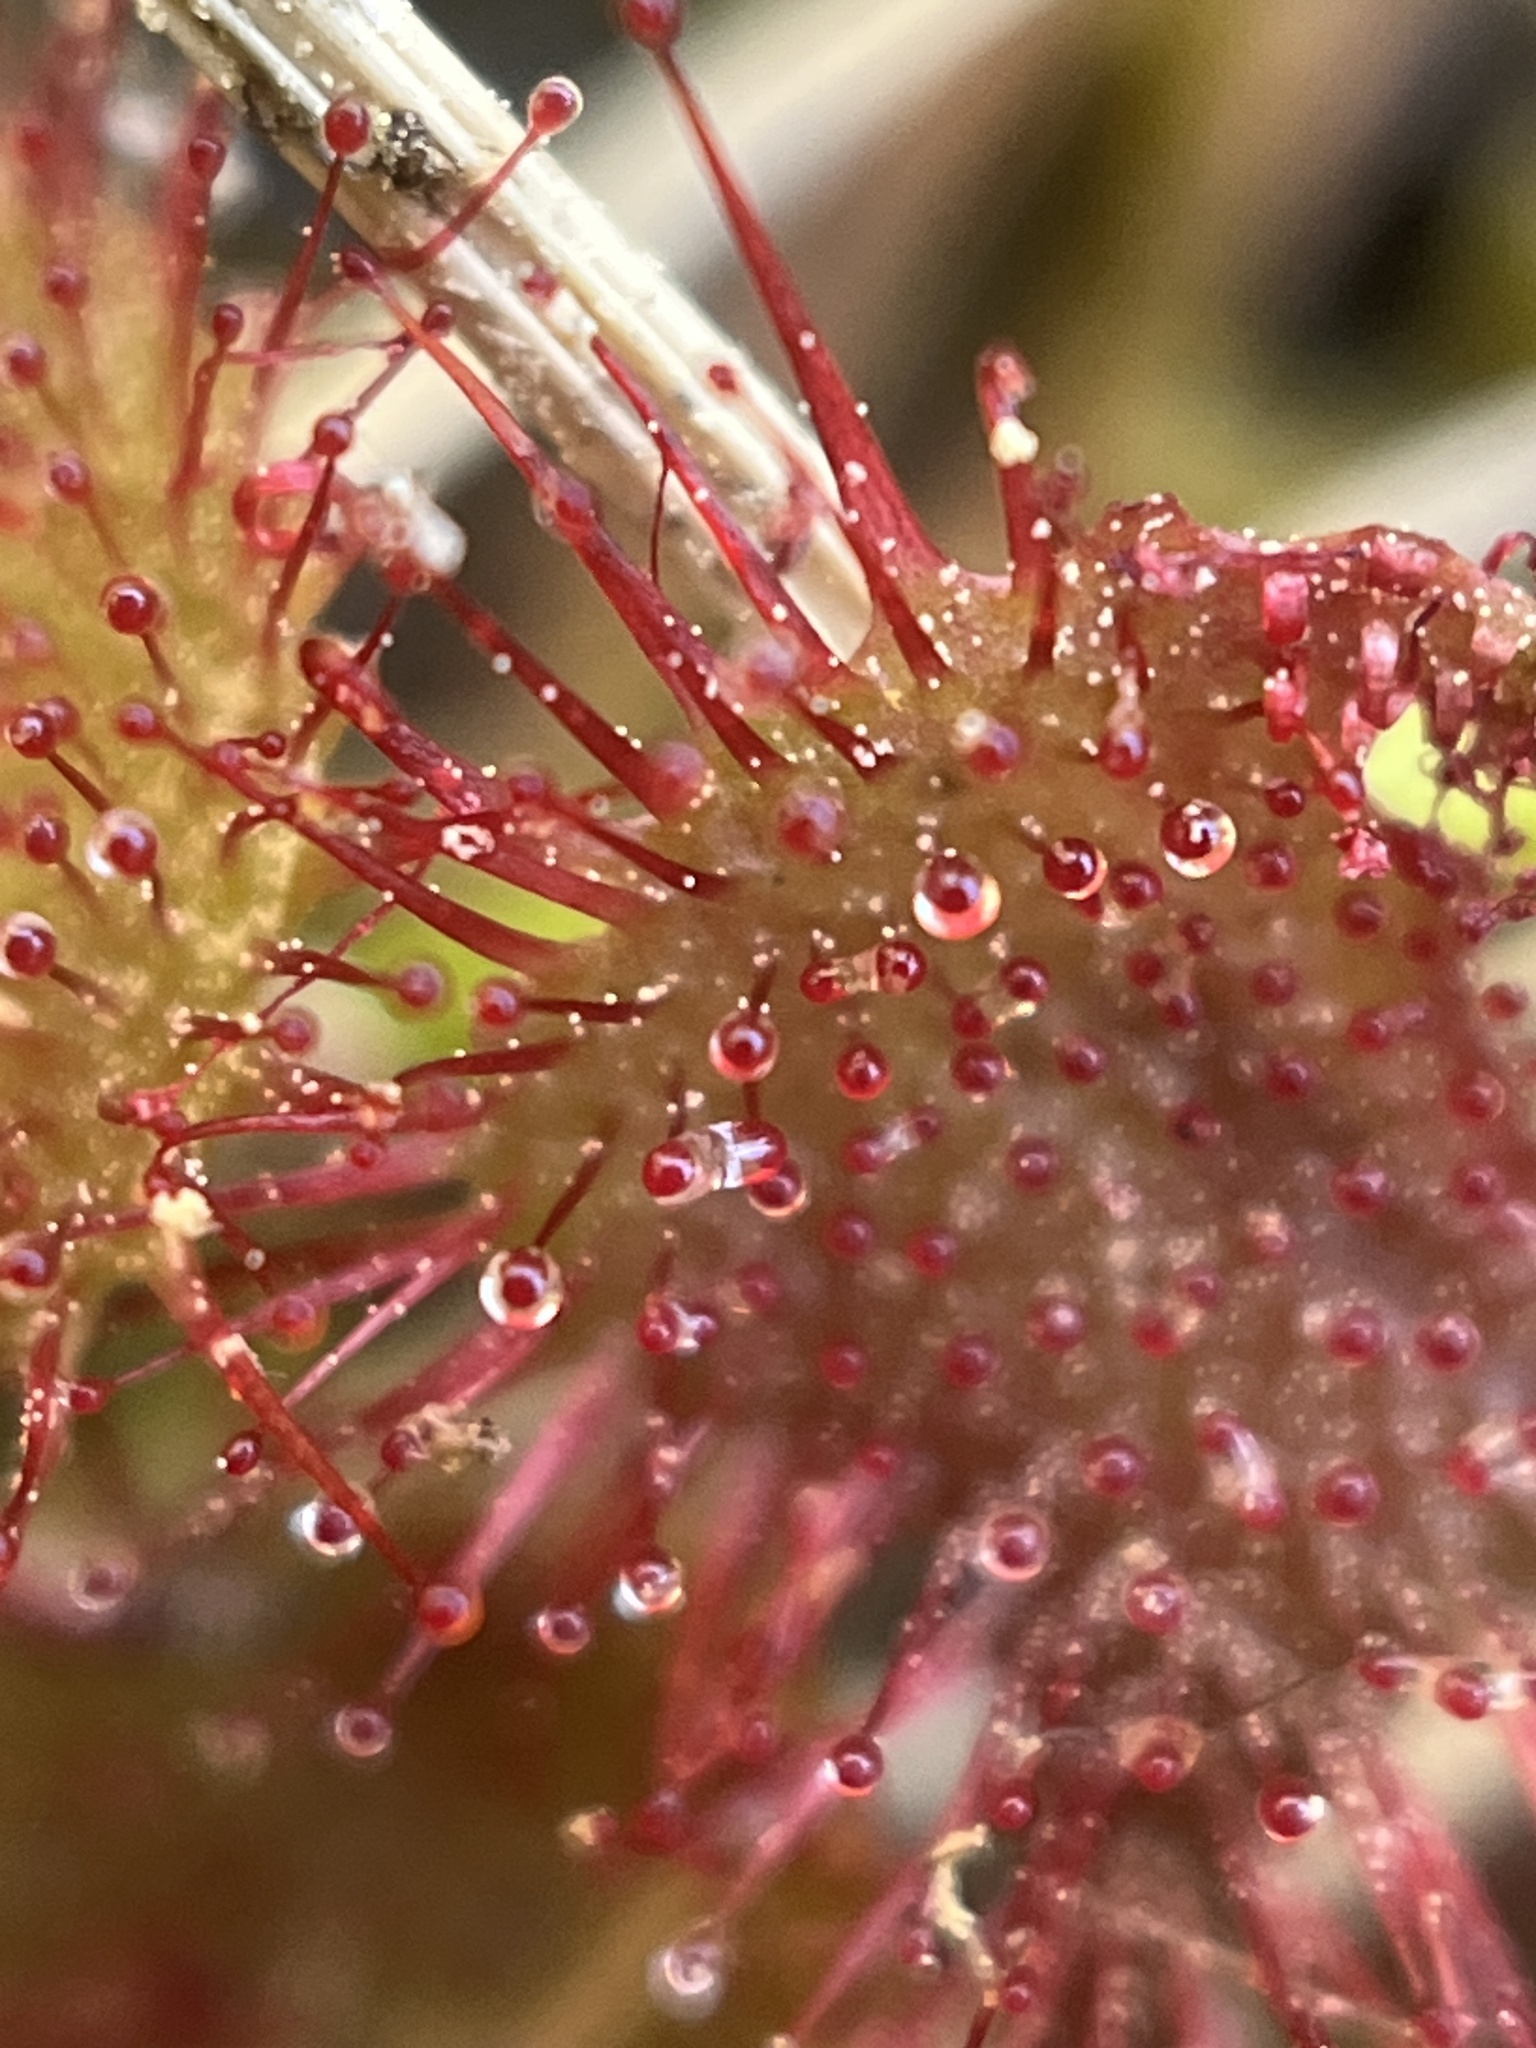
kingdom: Plantae
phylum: Tracheophyta
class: Magnoliopsida
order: Caryophyllales
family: Droseraceae
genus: Drosera
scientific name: Drosera rotundifolia
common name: Round-leaved sundew
